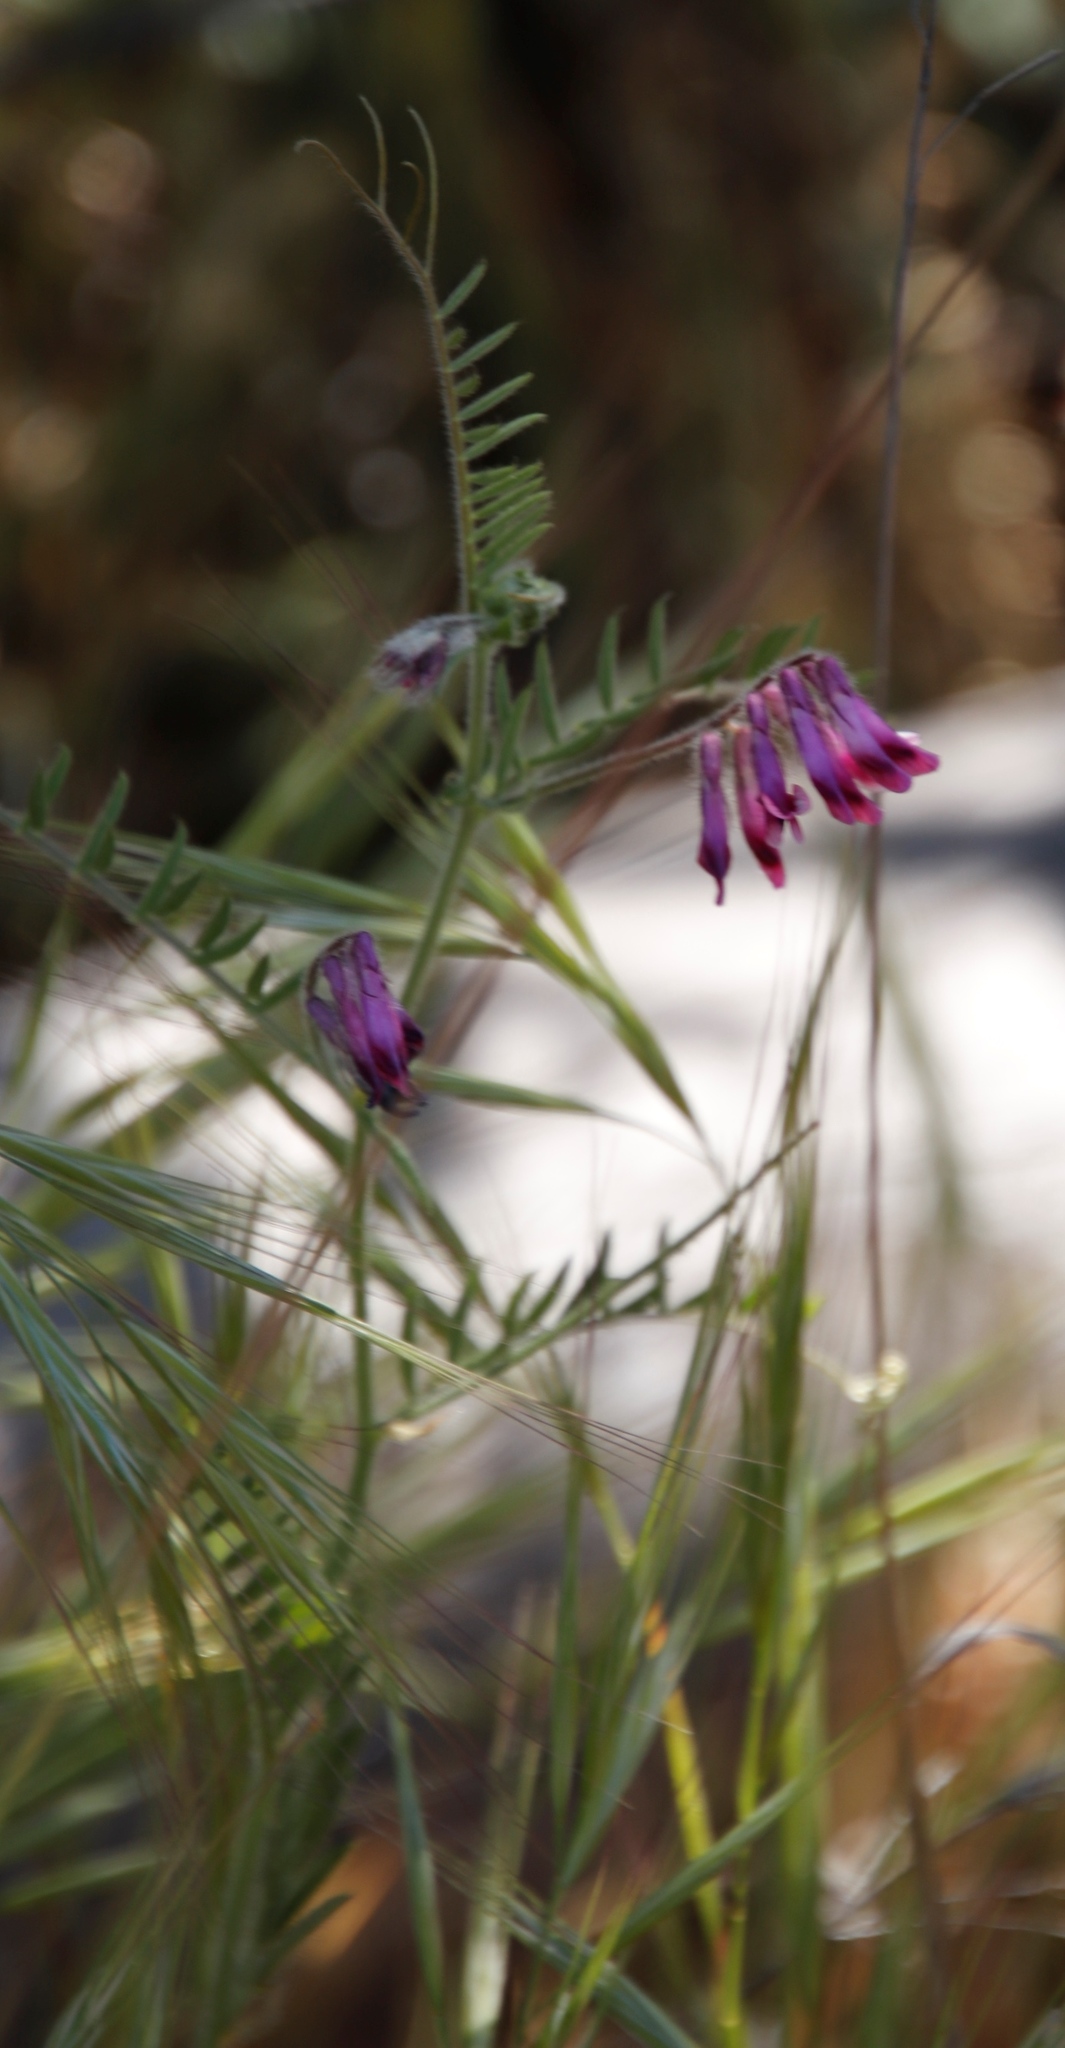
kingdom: Plantae
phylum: Tracheophyta
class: Magnoliopsida
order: Fabales
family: Fabaceae
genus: Vicia
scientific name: Vicia benghalensis
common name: Purple vetch
